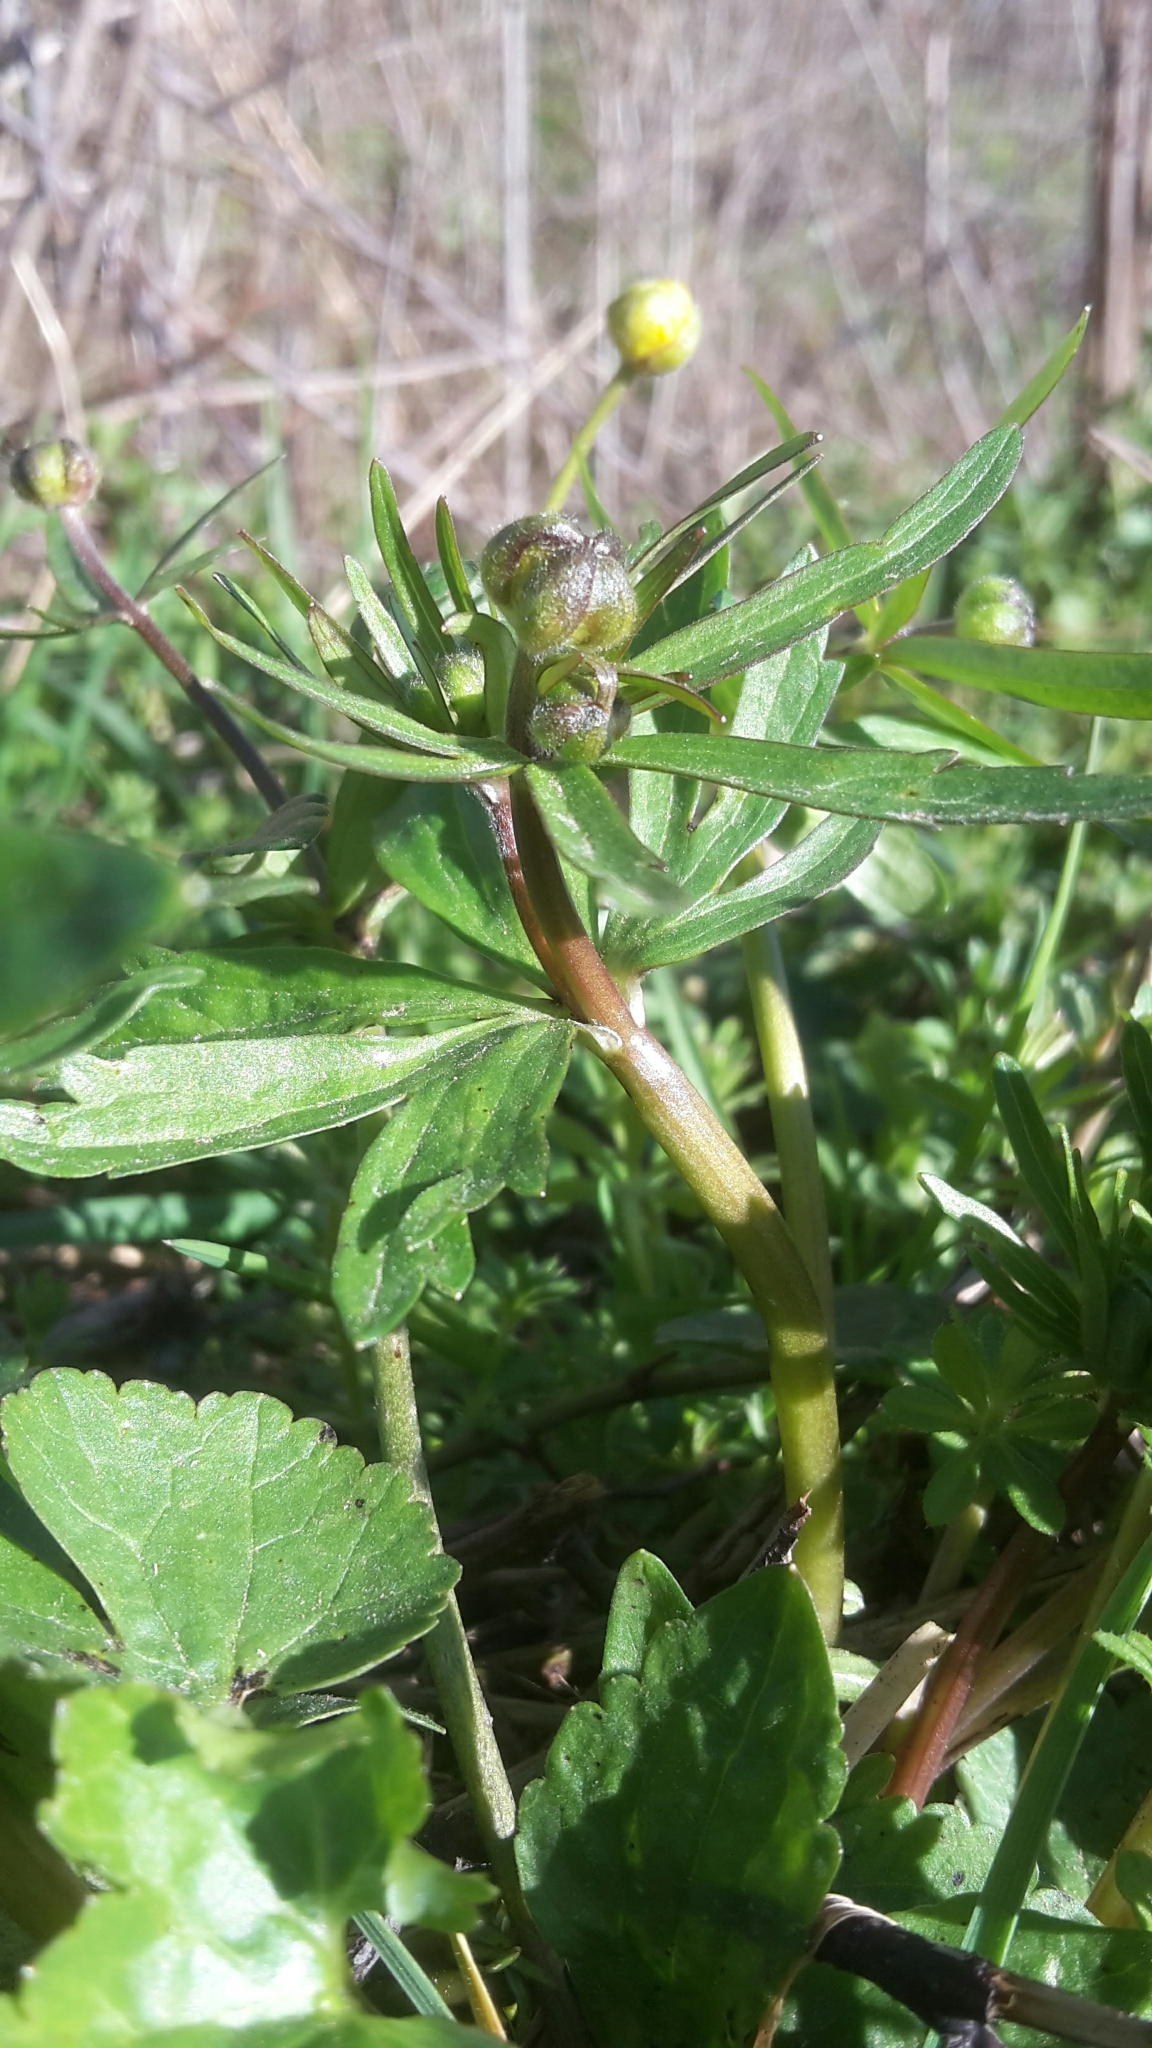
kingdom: Plantae
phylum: Tracheophyta
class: Magnoliopsida
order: Ranunculales
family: Ranunculaceae
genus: Ranunculus
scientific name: Ranunculus auricomus
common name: Goldilocks buttercup
